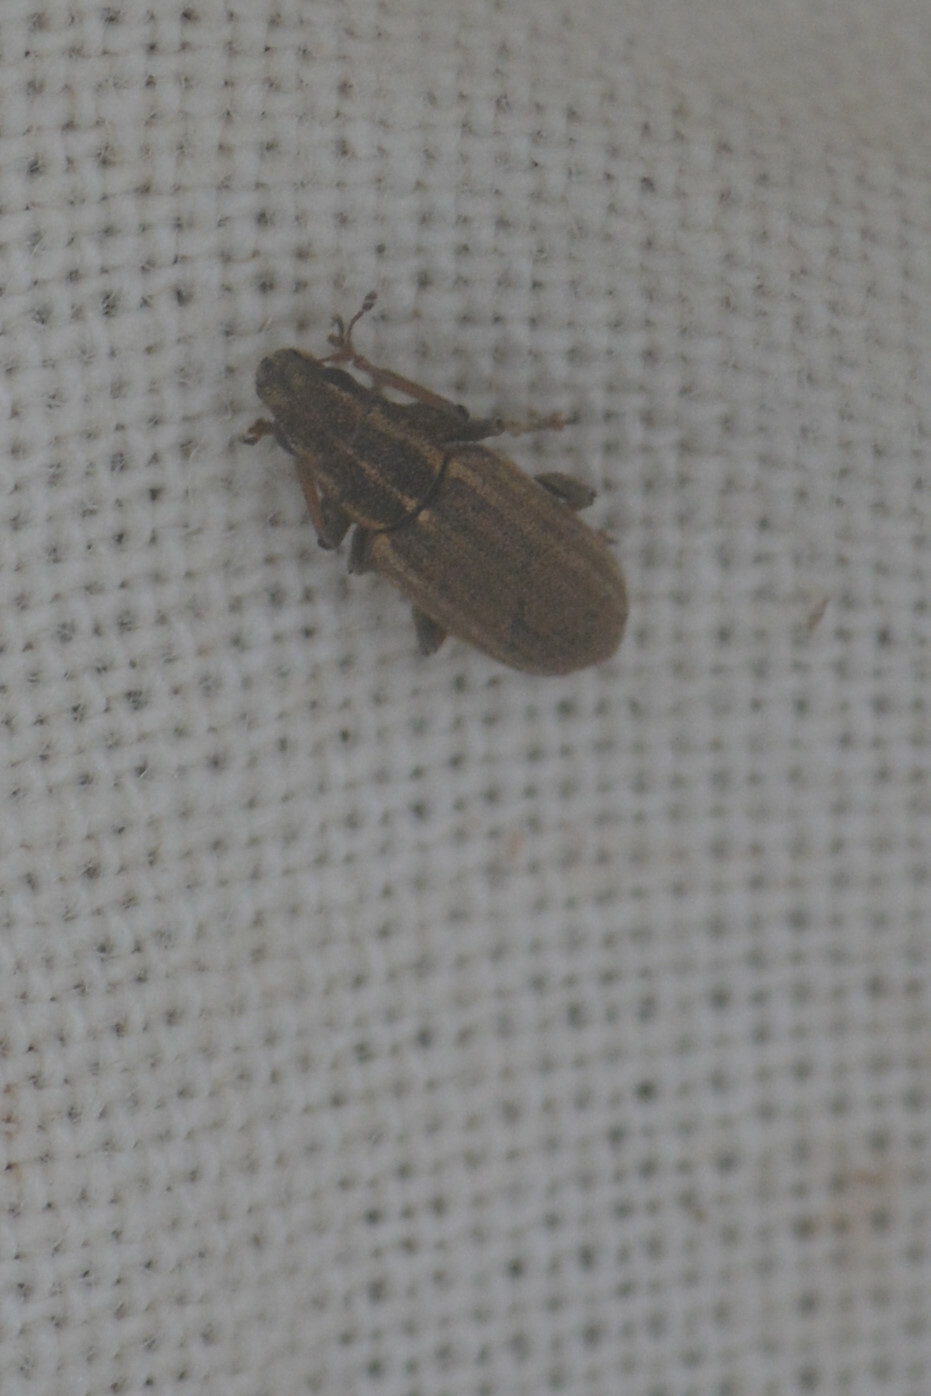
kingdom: Animalia
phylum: Arthropoda
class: Insecta
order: Coleoptera
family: Curculionidae
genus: Sitona
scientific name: Sitona lineatus
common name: Weevil
